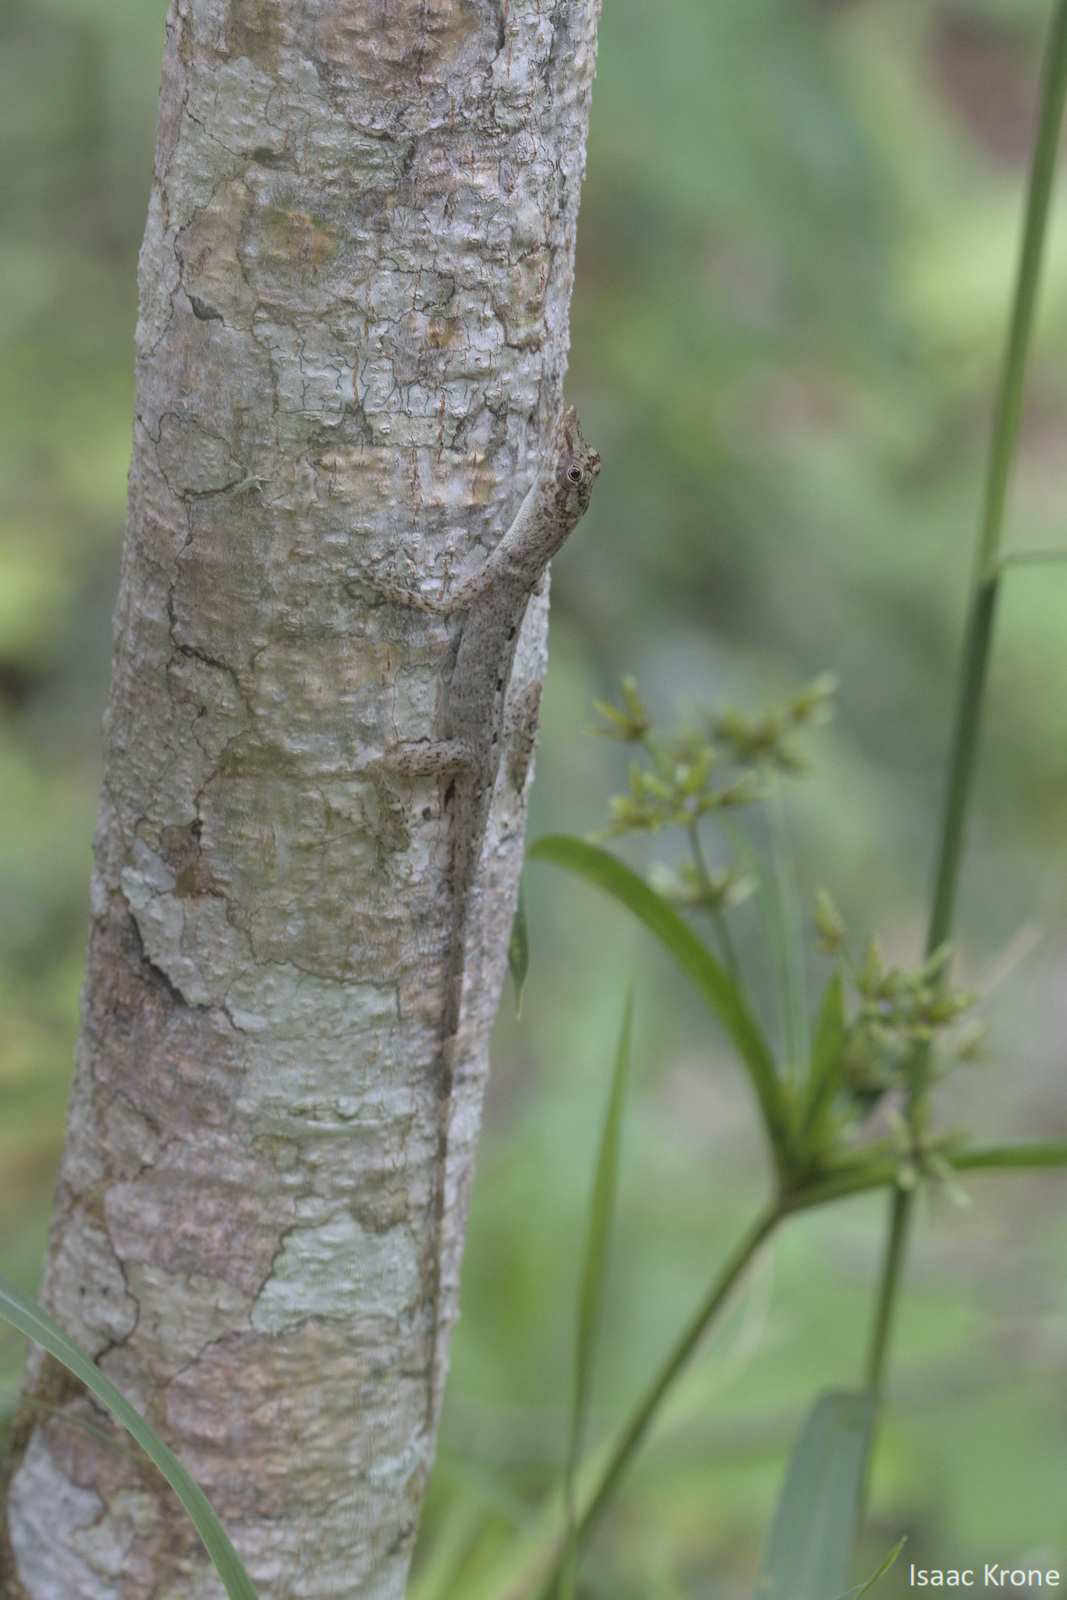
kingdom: Animalia
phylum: Chordata
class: Squamata
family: Dactyloidae
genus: Anolis
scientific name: Anolis fuscoauratus
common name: Brown-eared anole
